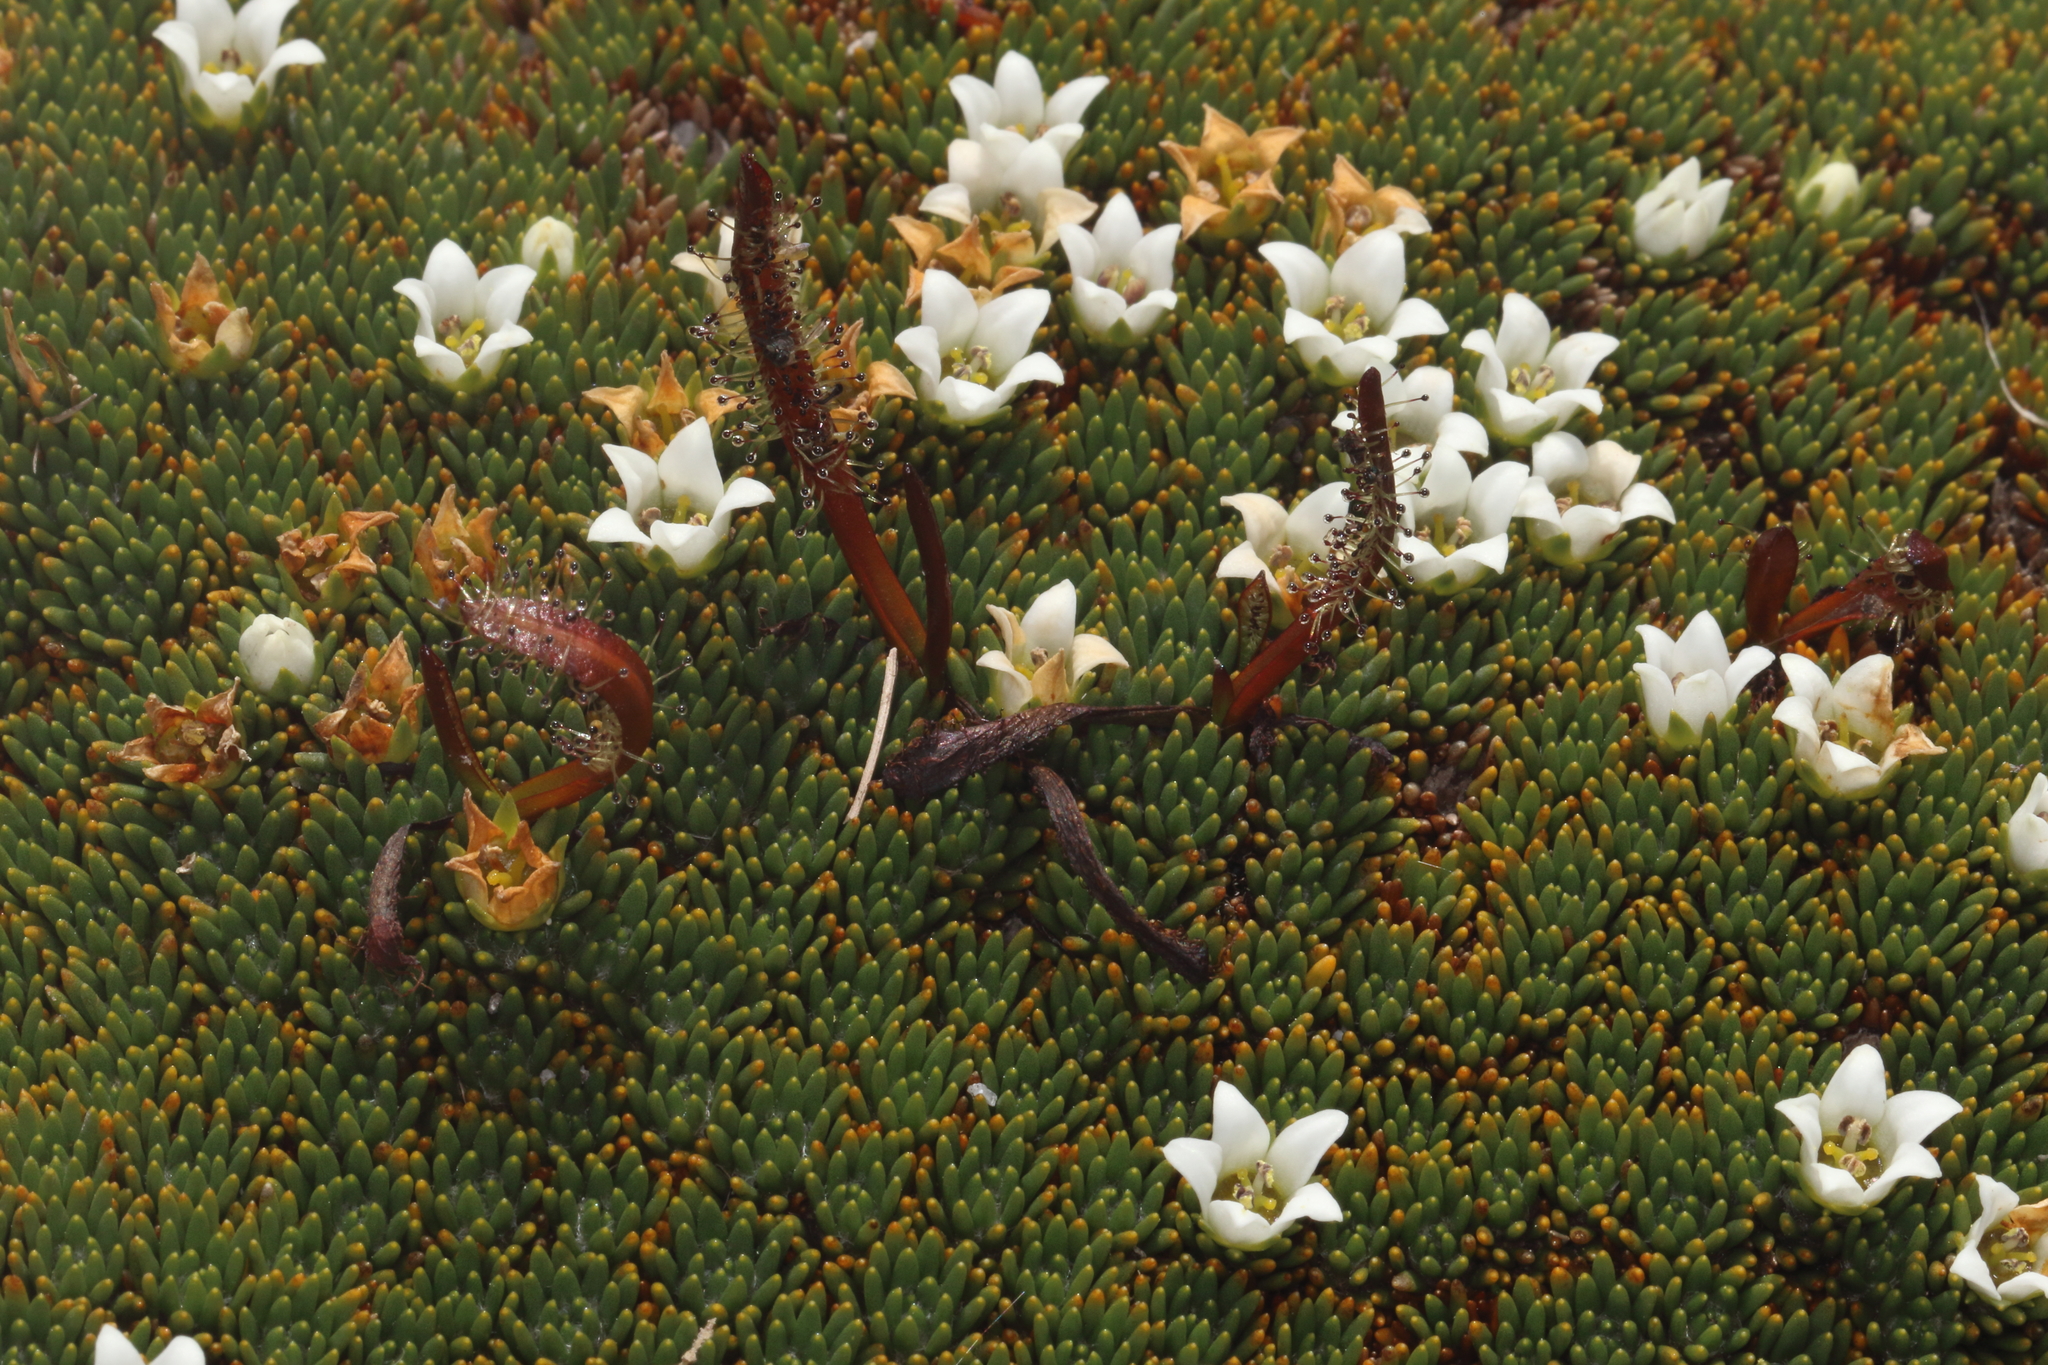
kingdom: Plantae
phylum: Tracheophyta
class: Magnoliopsida
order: Caryophyllales
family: Droseraceae
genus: Drosera
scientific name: Drosera arcturi
